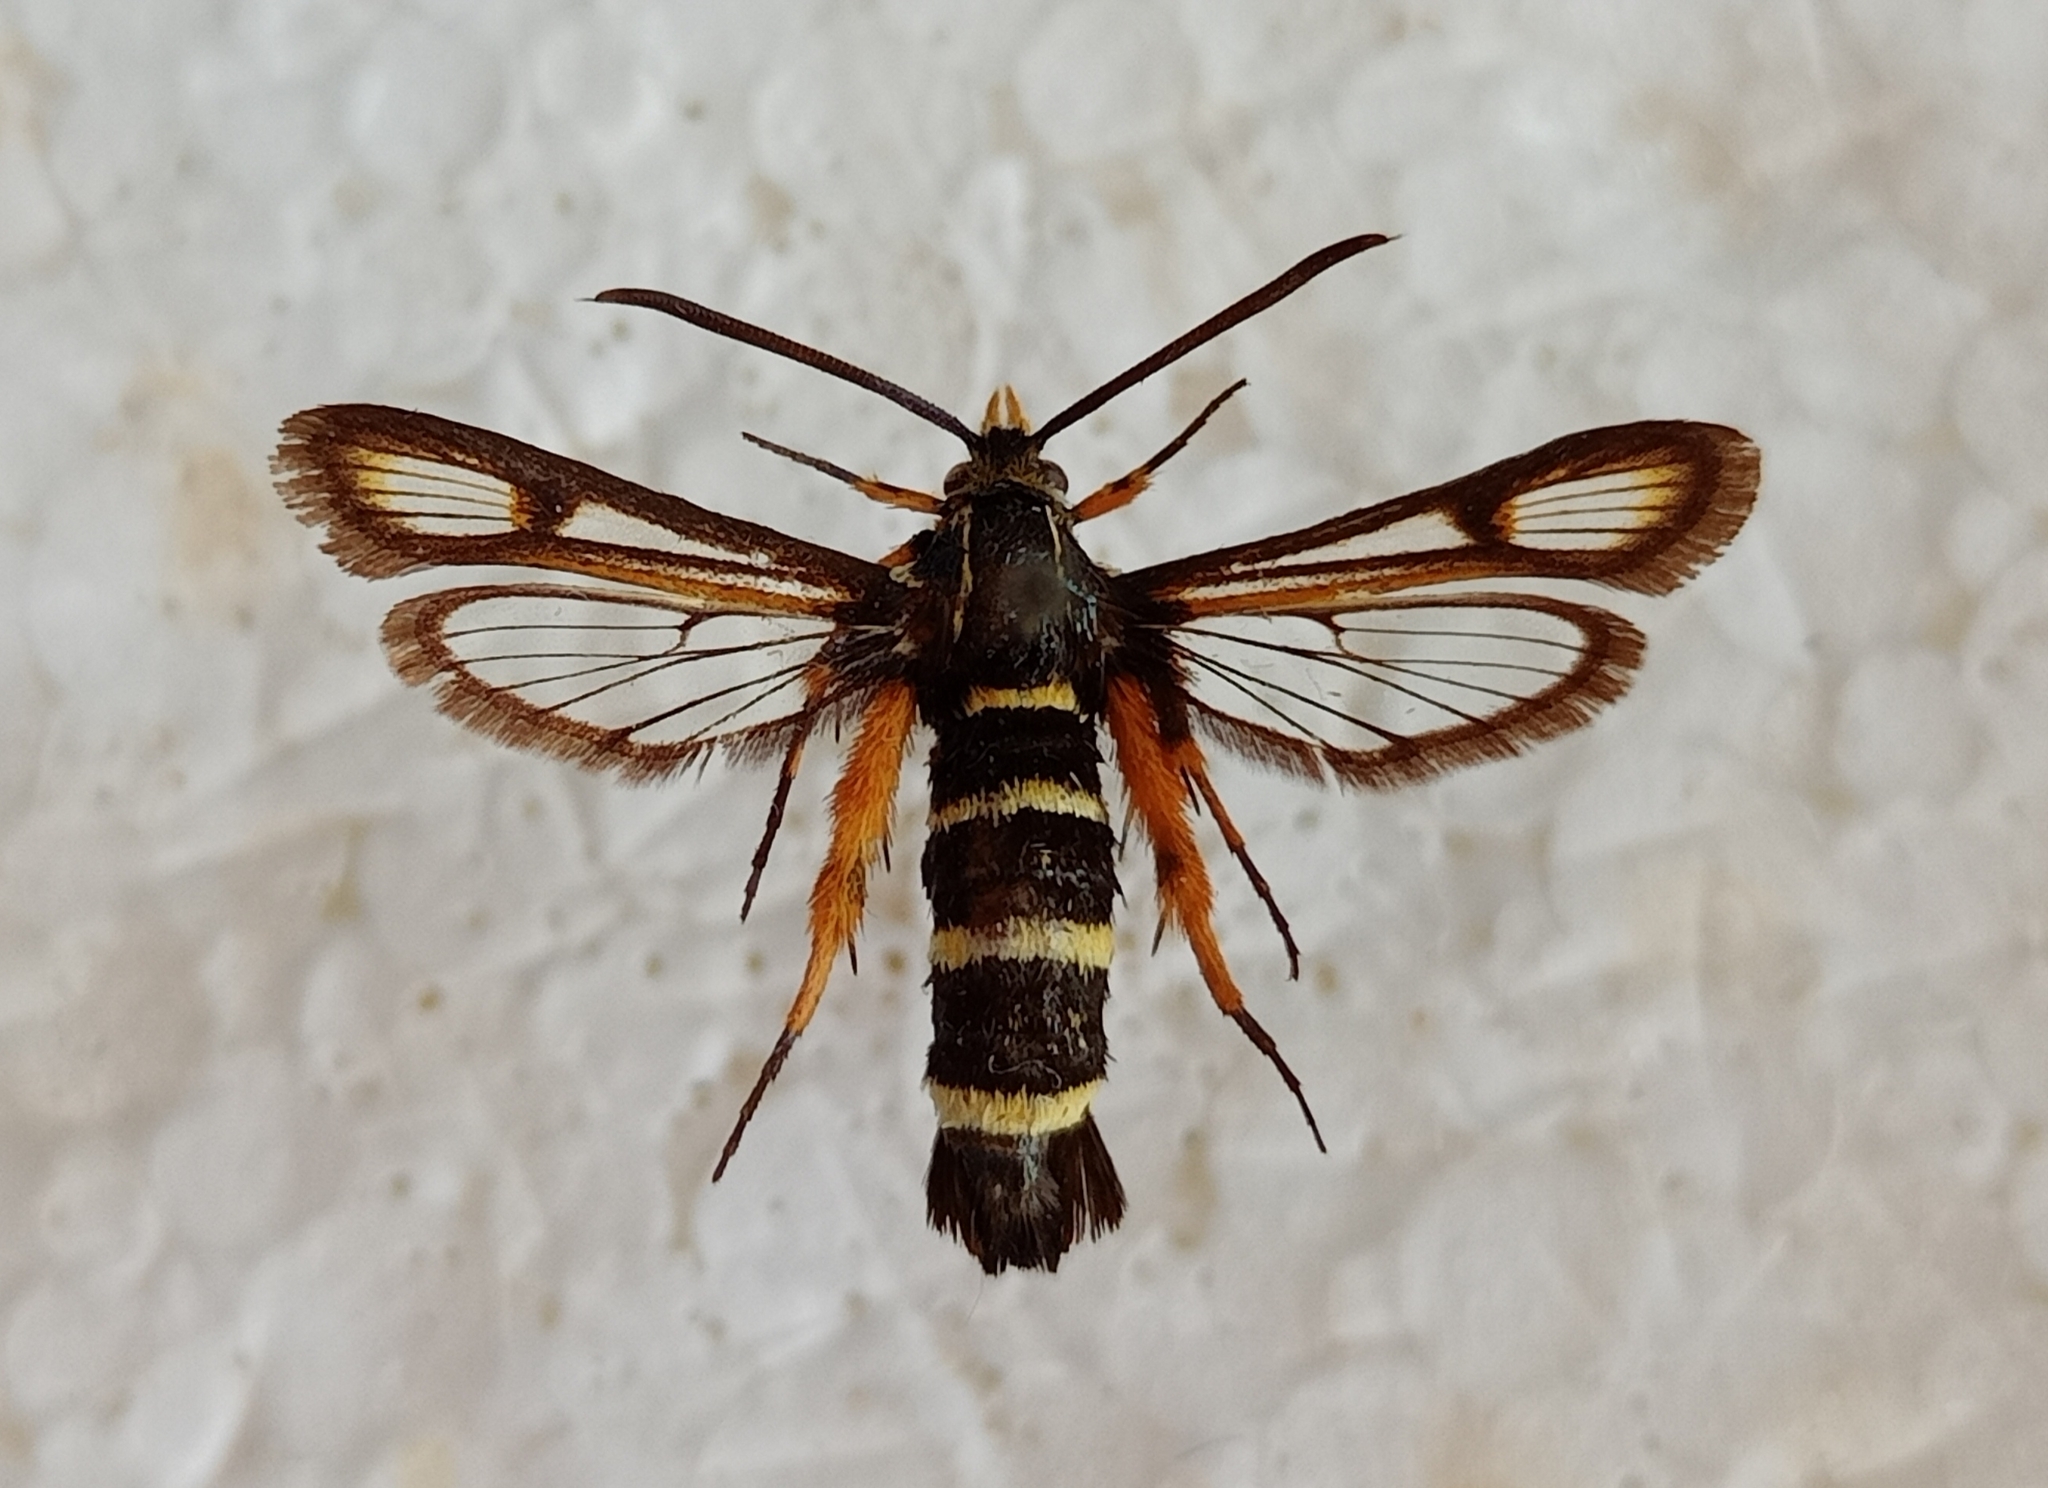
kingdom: Animalia
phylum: Arthropoda
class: Insecta
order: Lepidoptera
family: Sesiidae
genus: Bembecia
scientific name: Bembecia puella
